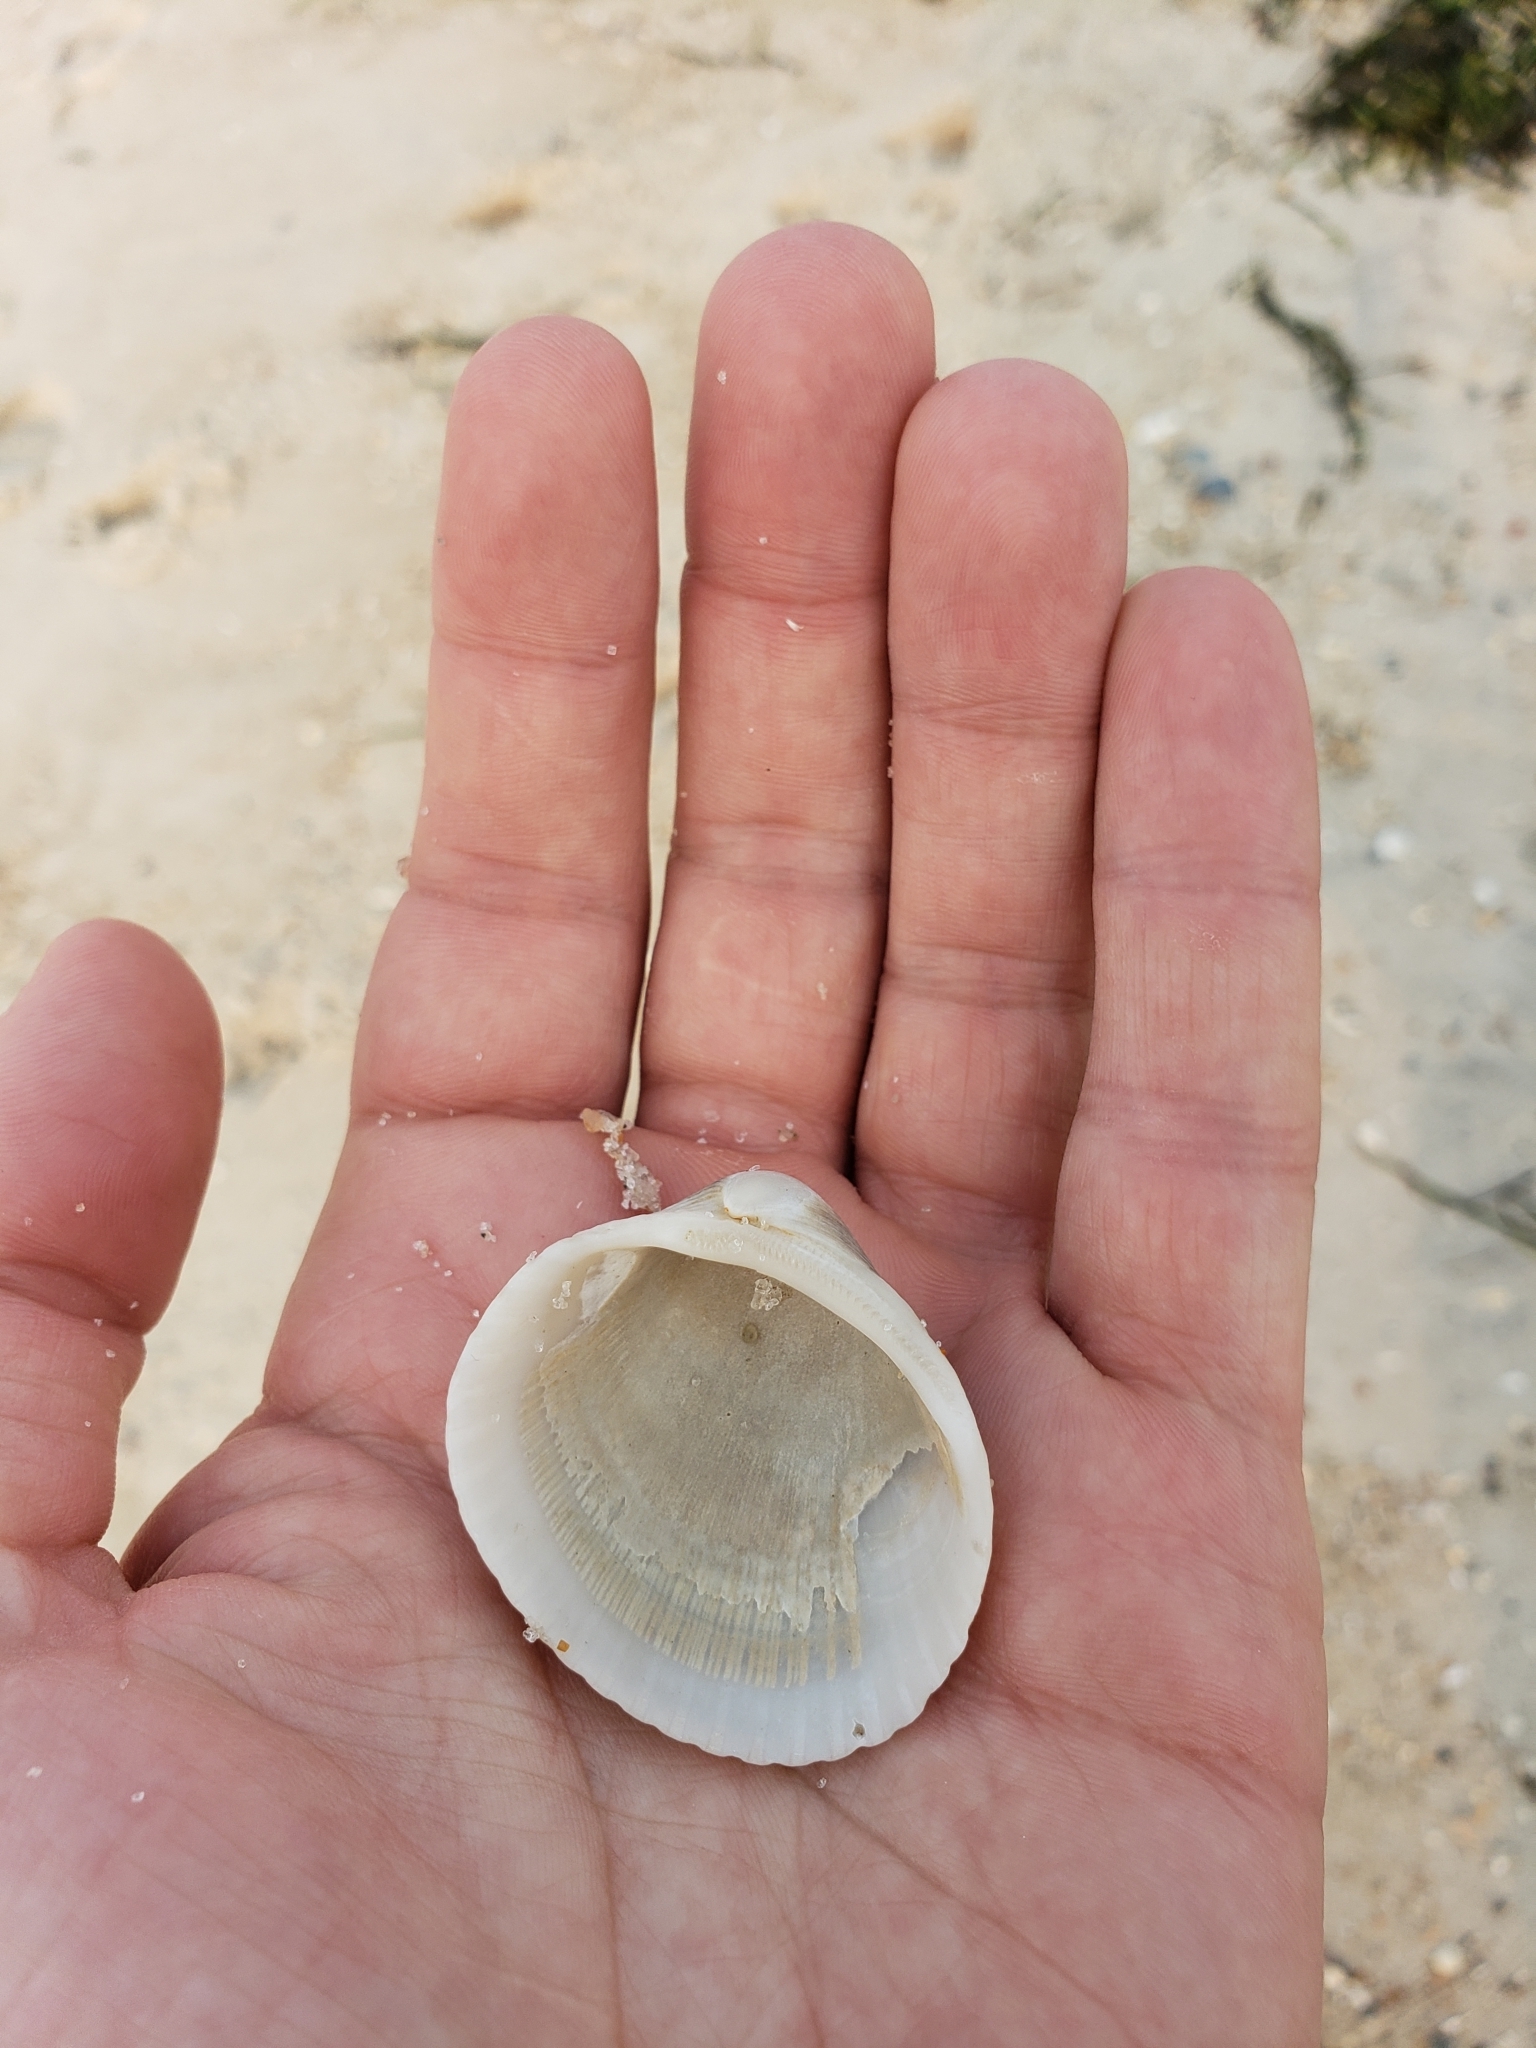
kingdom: Animalia
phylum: Mollusca
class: Bivalvia
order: Arcida
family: Arcidae
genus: Lunarca
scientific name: Lunarca ovalis
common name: Blood ark
